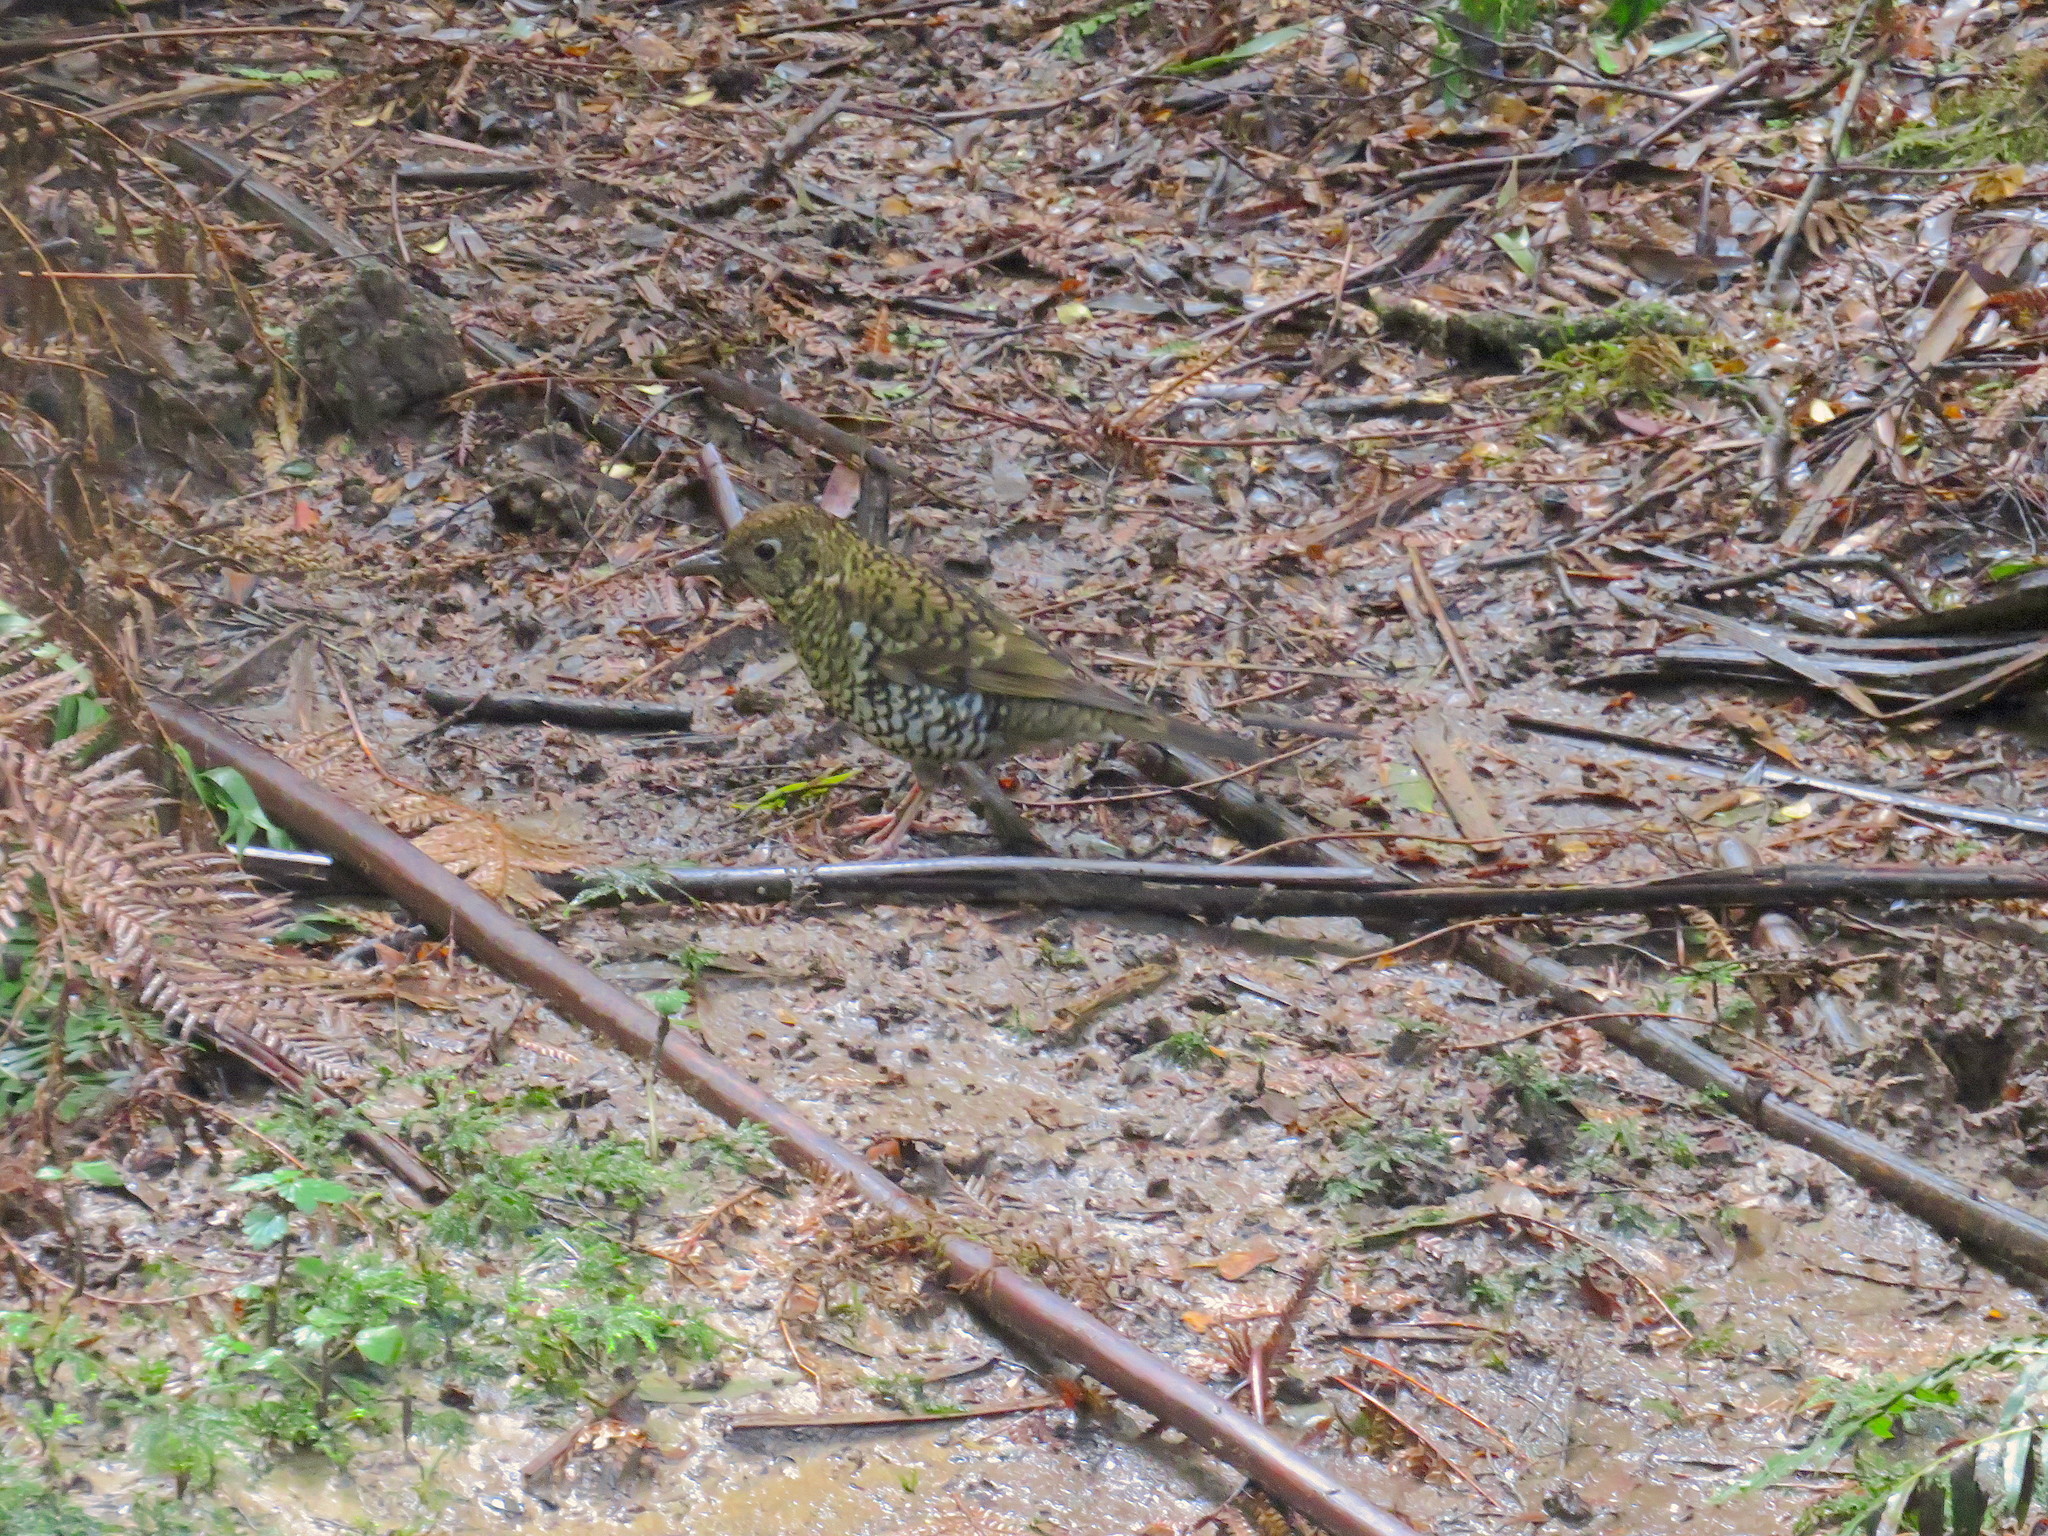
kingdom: Animalia
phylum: Chordata
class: Aves
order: Passeriformes
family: Turdidae
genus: Zoothera
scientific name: Zoothera lunulata
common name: Bassian thrush
